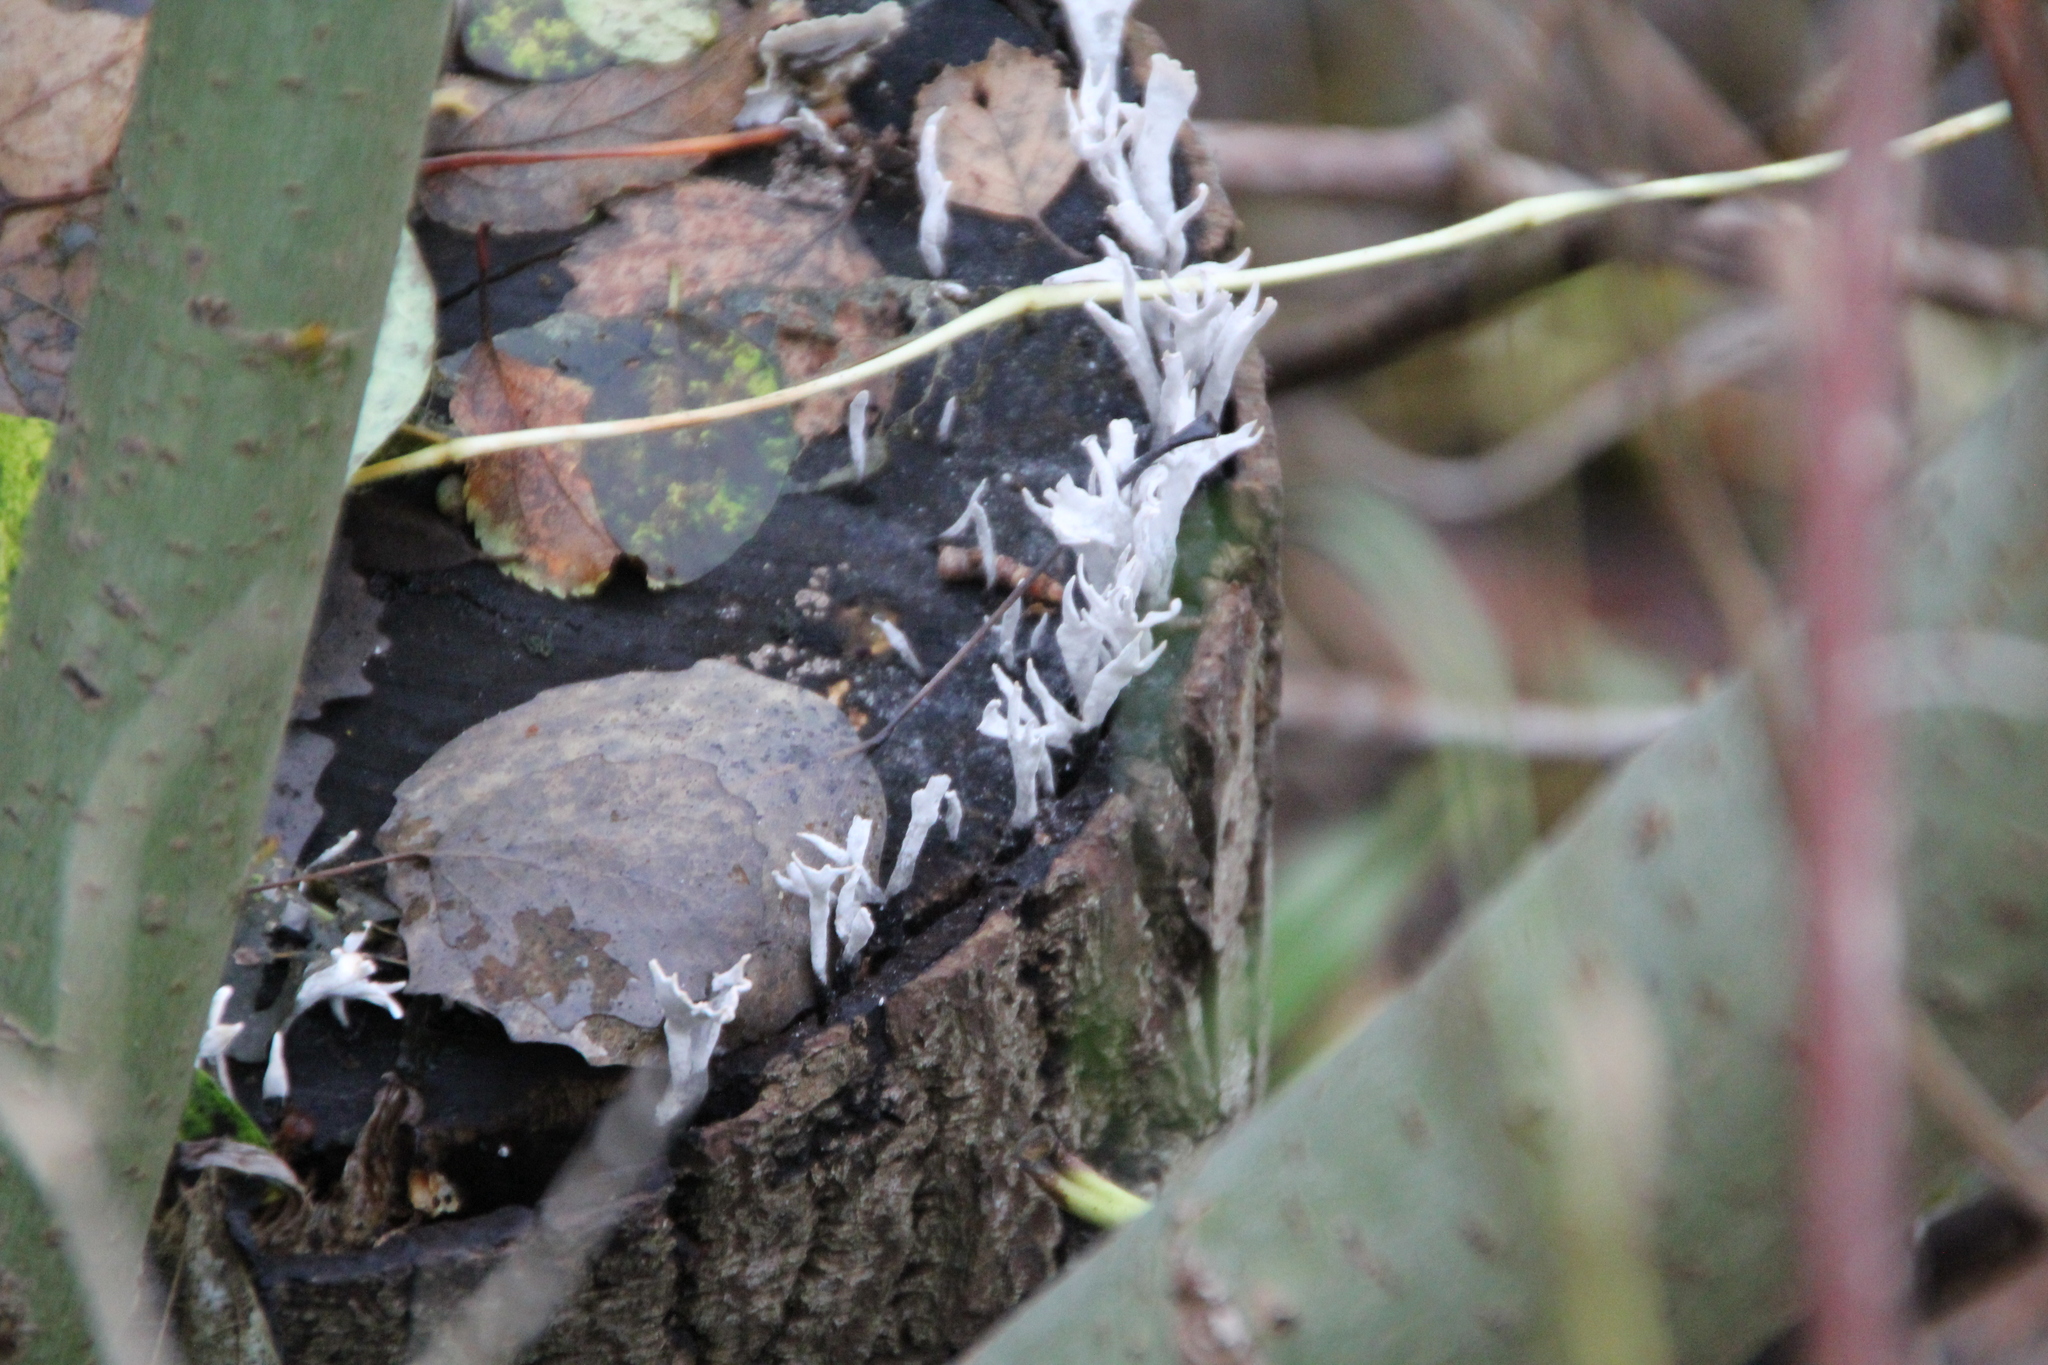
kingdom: Fungi
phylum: Ascomycota
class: Sordariomycetes
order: Xylariales
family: Xylariaceae
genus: Xylaria
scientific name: Xylaria hypoxylon
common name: Candle-snuff fungus
